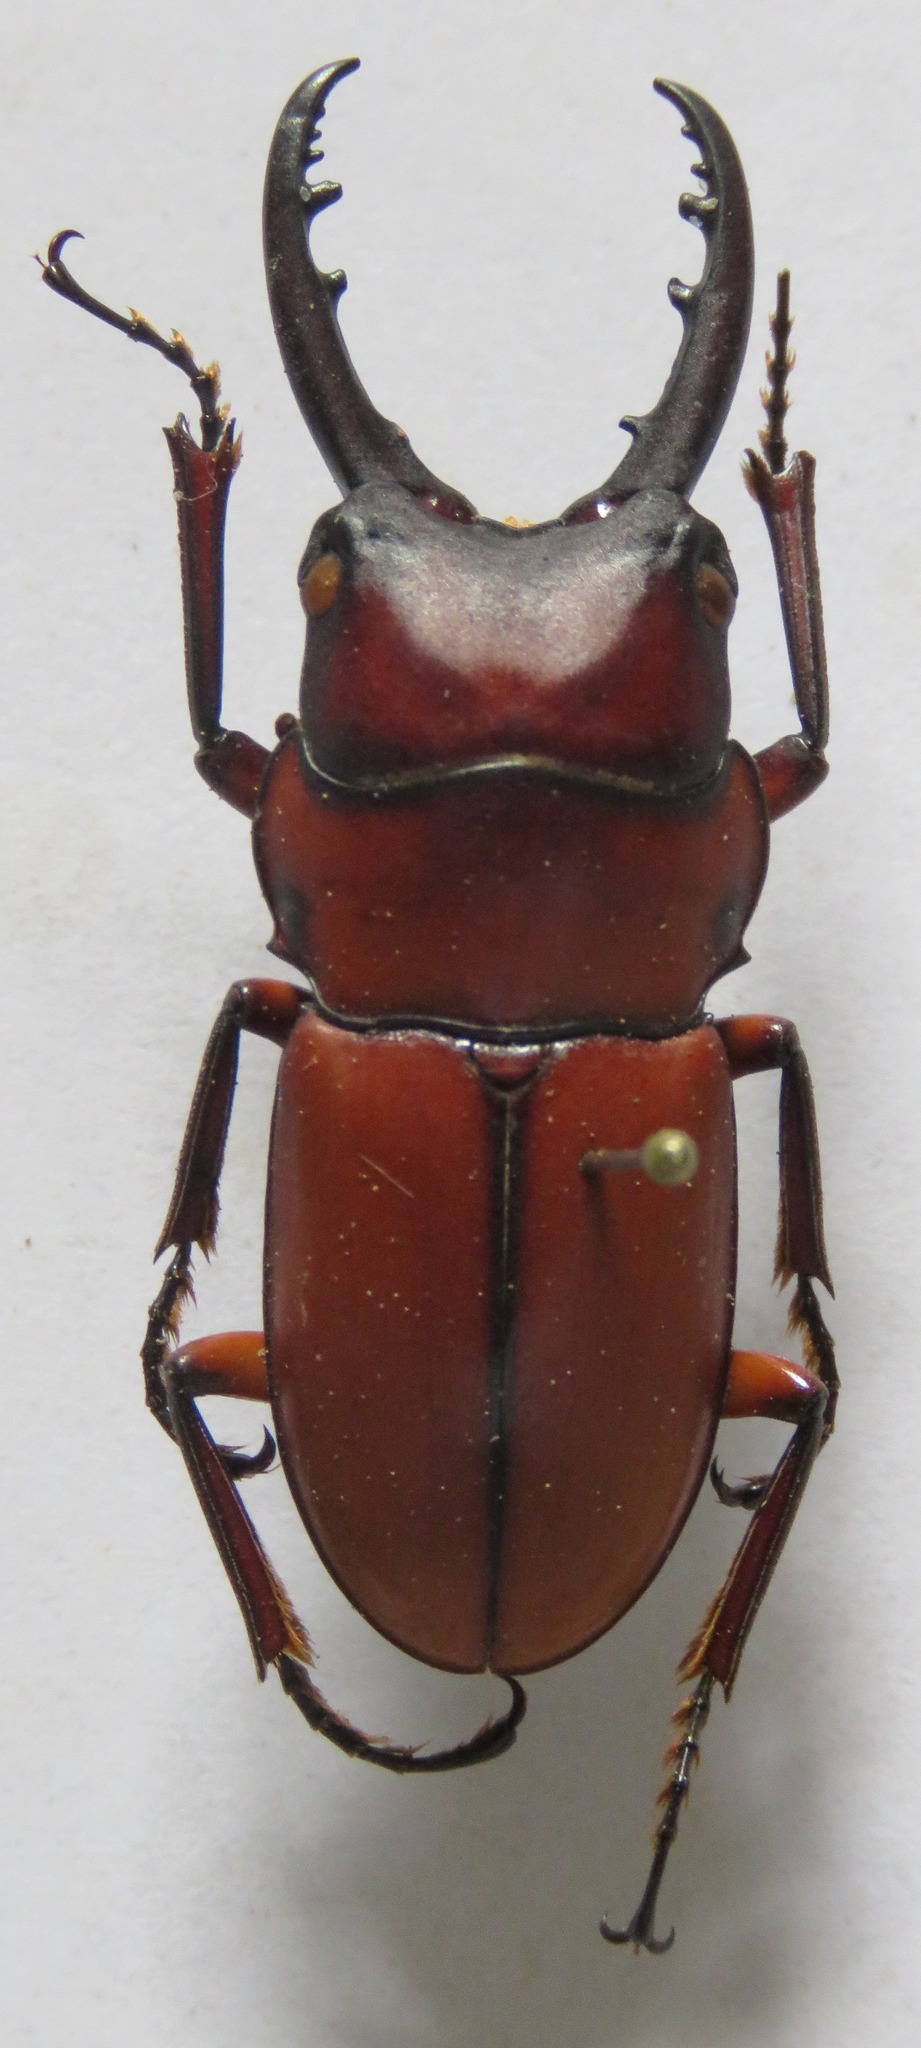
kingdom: Animalia
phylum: Arthropoda
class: Insecta
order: Coleoptera
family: Lucanidae
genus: Prosopocoilus
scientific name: Prosopocoilus bruijni
